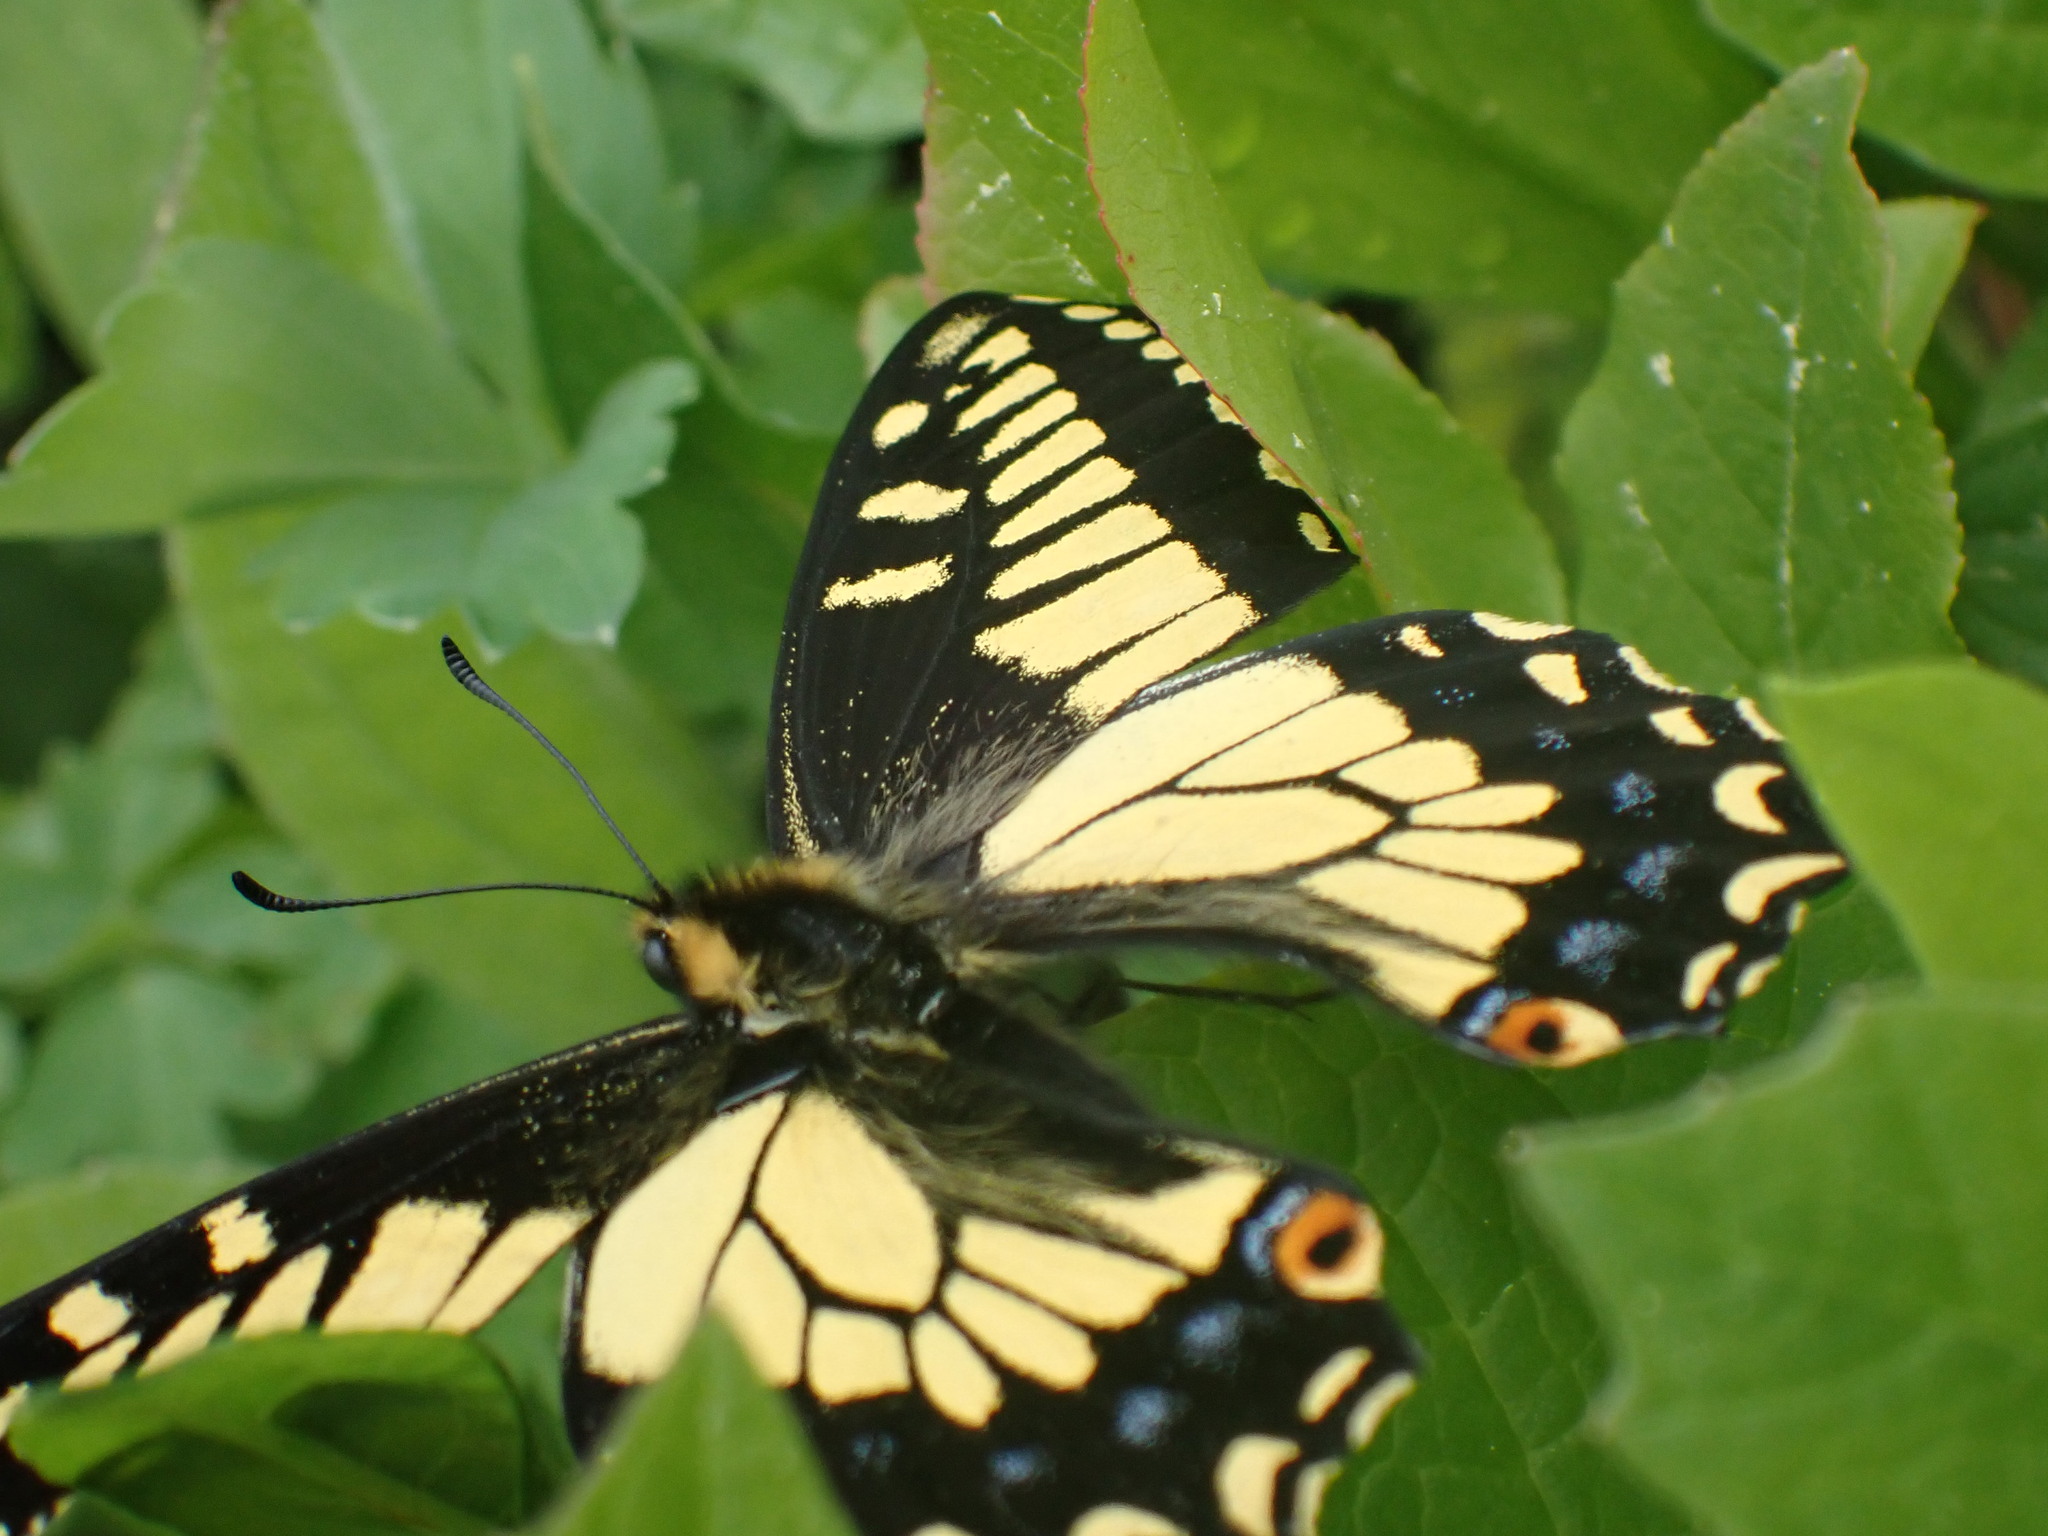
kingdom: Animalia
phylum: Arthropoda
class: Insecta
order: Lepidoptera
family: Papilionidae
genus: Papilio
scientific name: Papilio zelicaon
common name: Anise swallowtail
